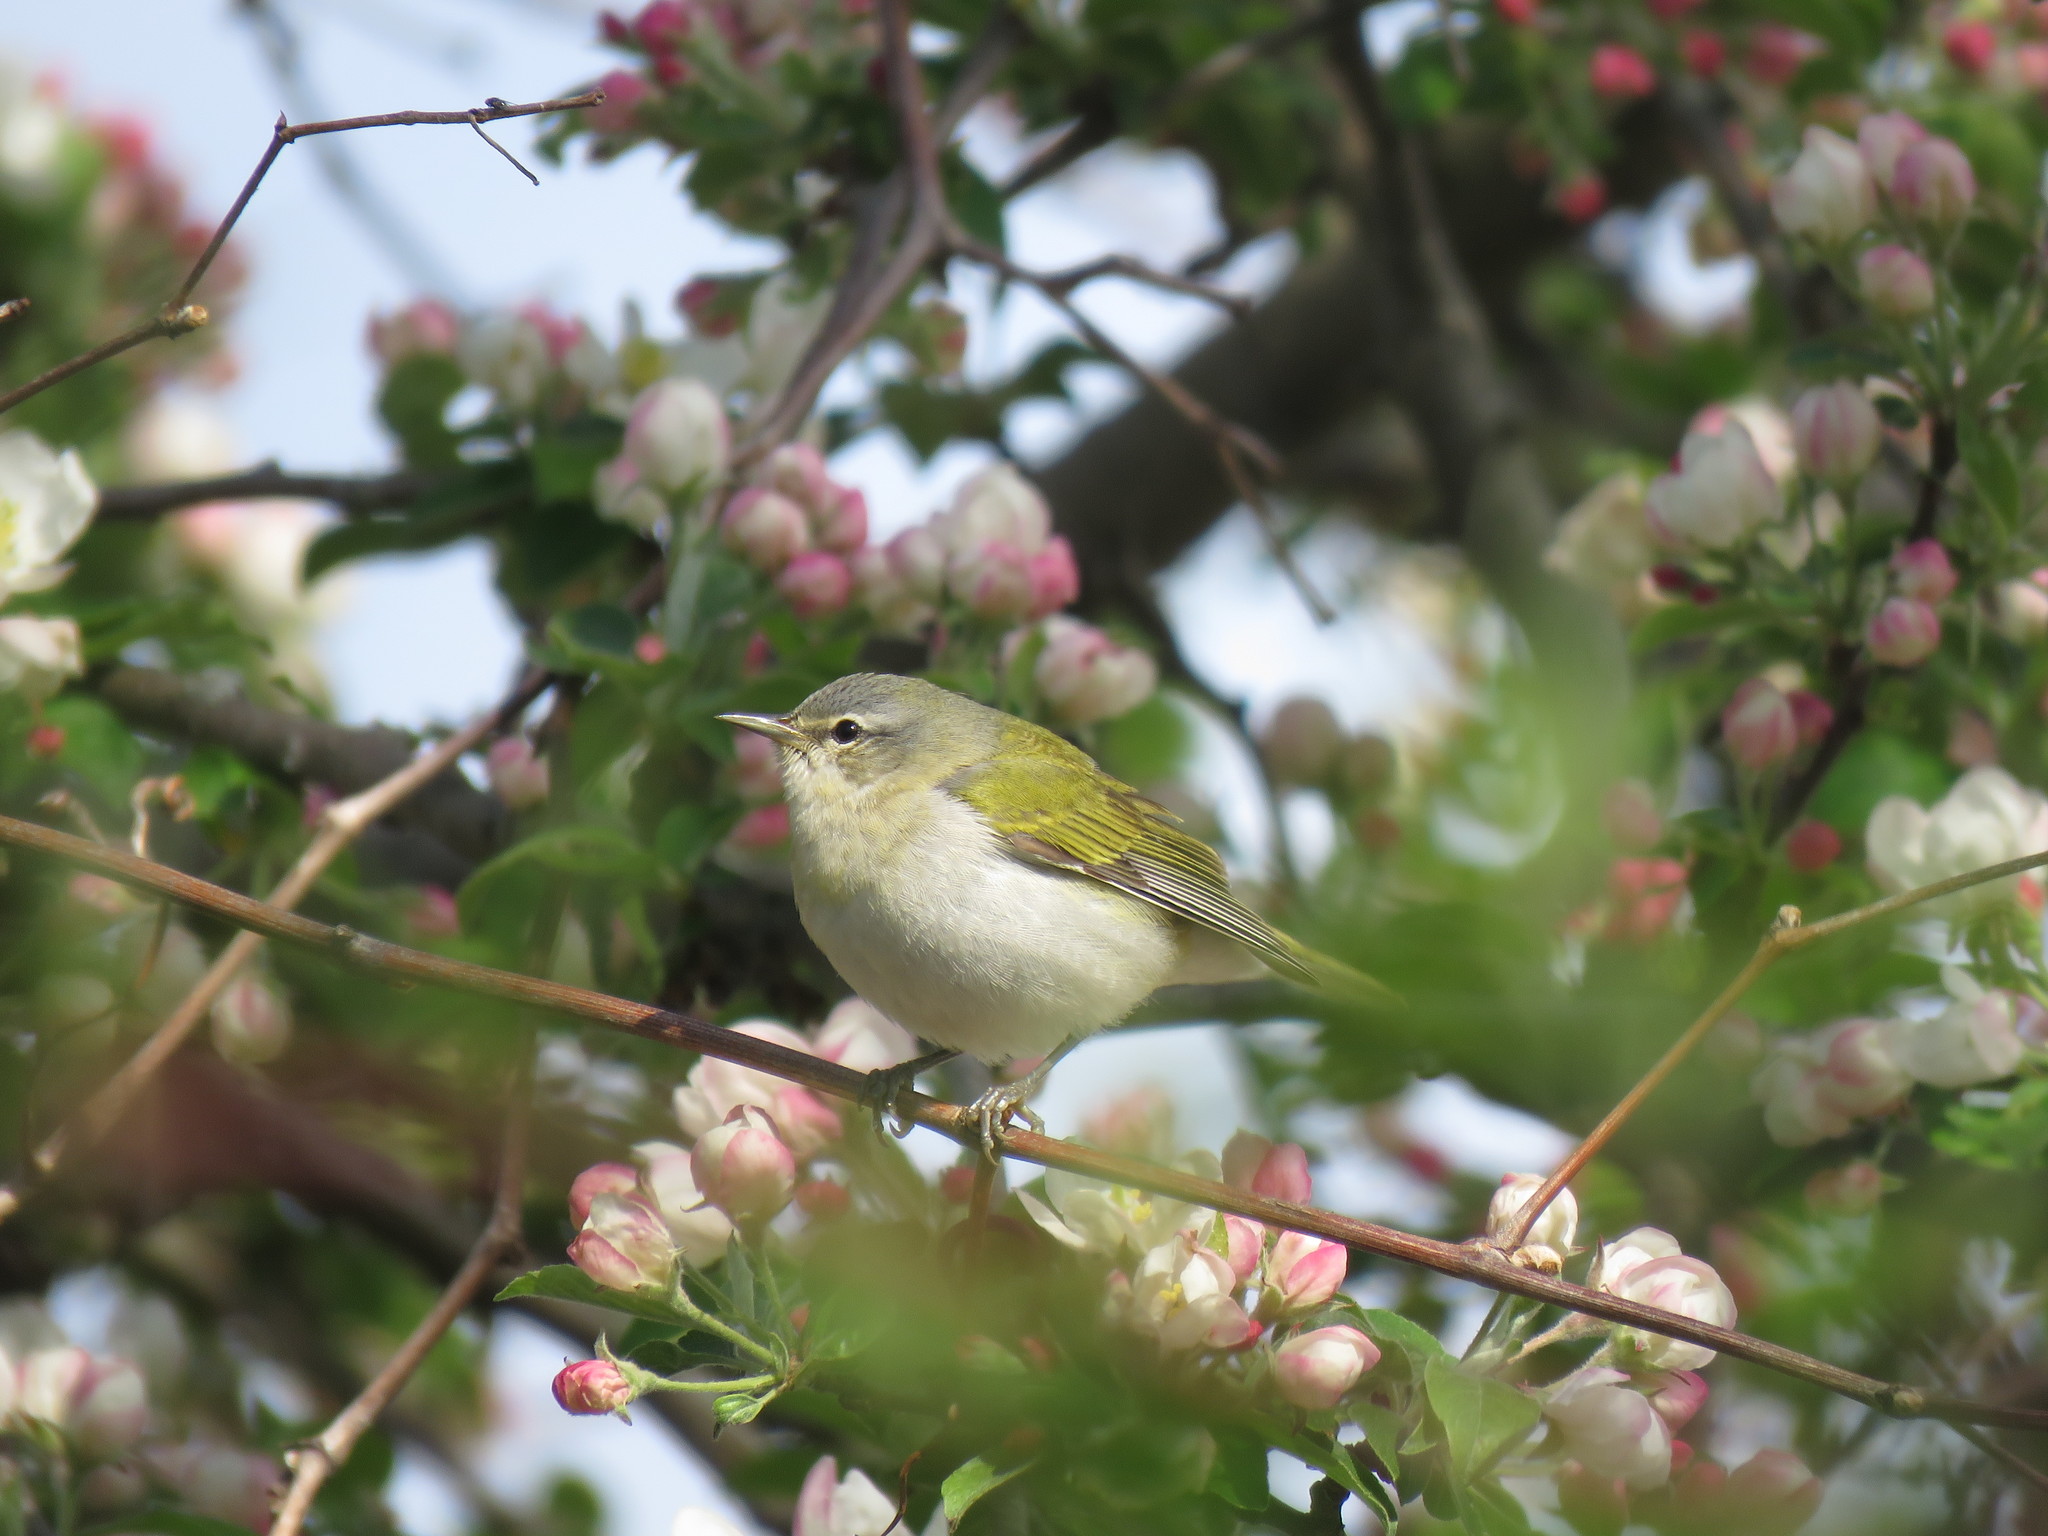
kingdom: Animalia
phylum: Chordata
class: Aves
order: Passeriformes
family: Parulidae
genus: Leiothlypis
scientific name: Leiothlypis peregrina
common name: Tennessee warbler
